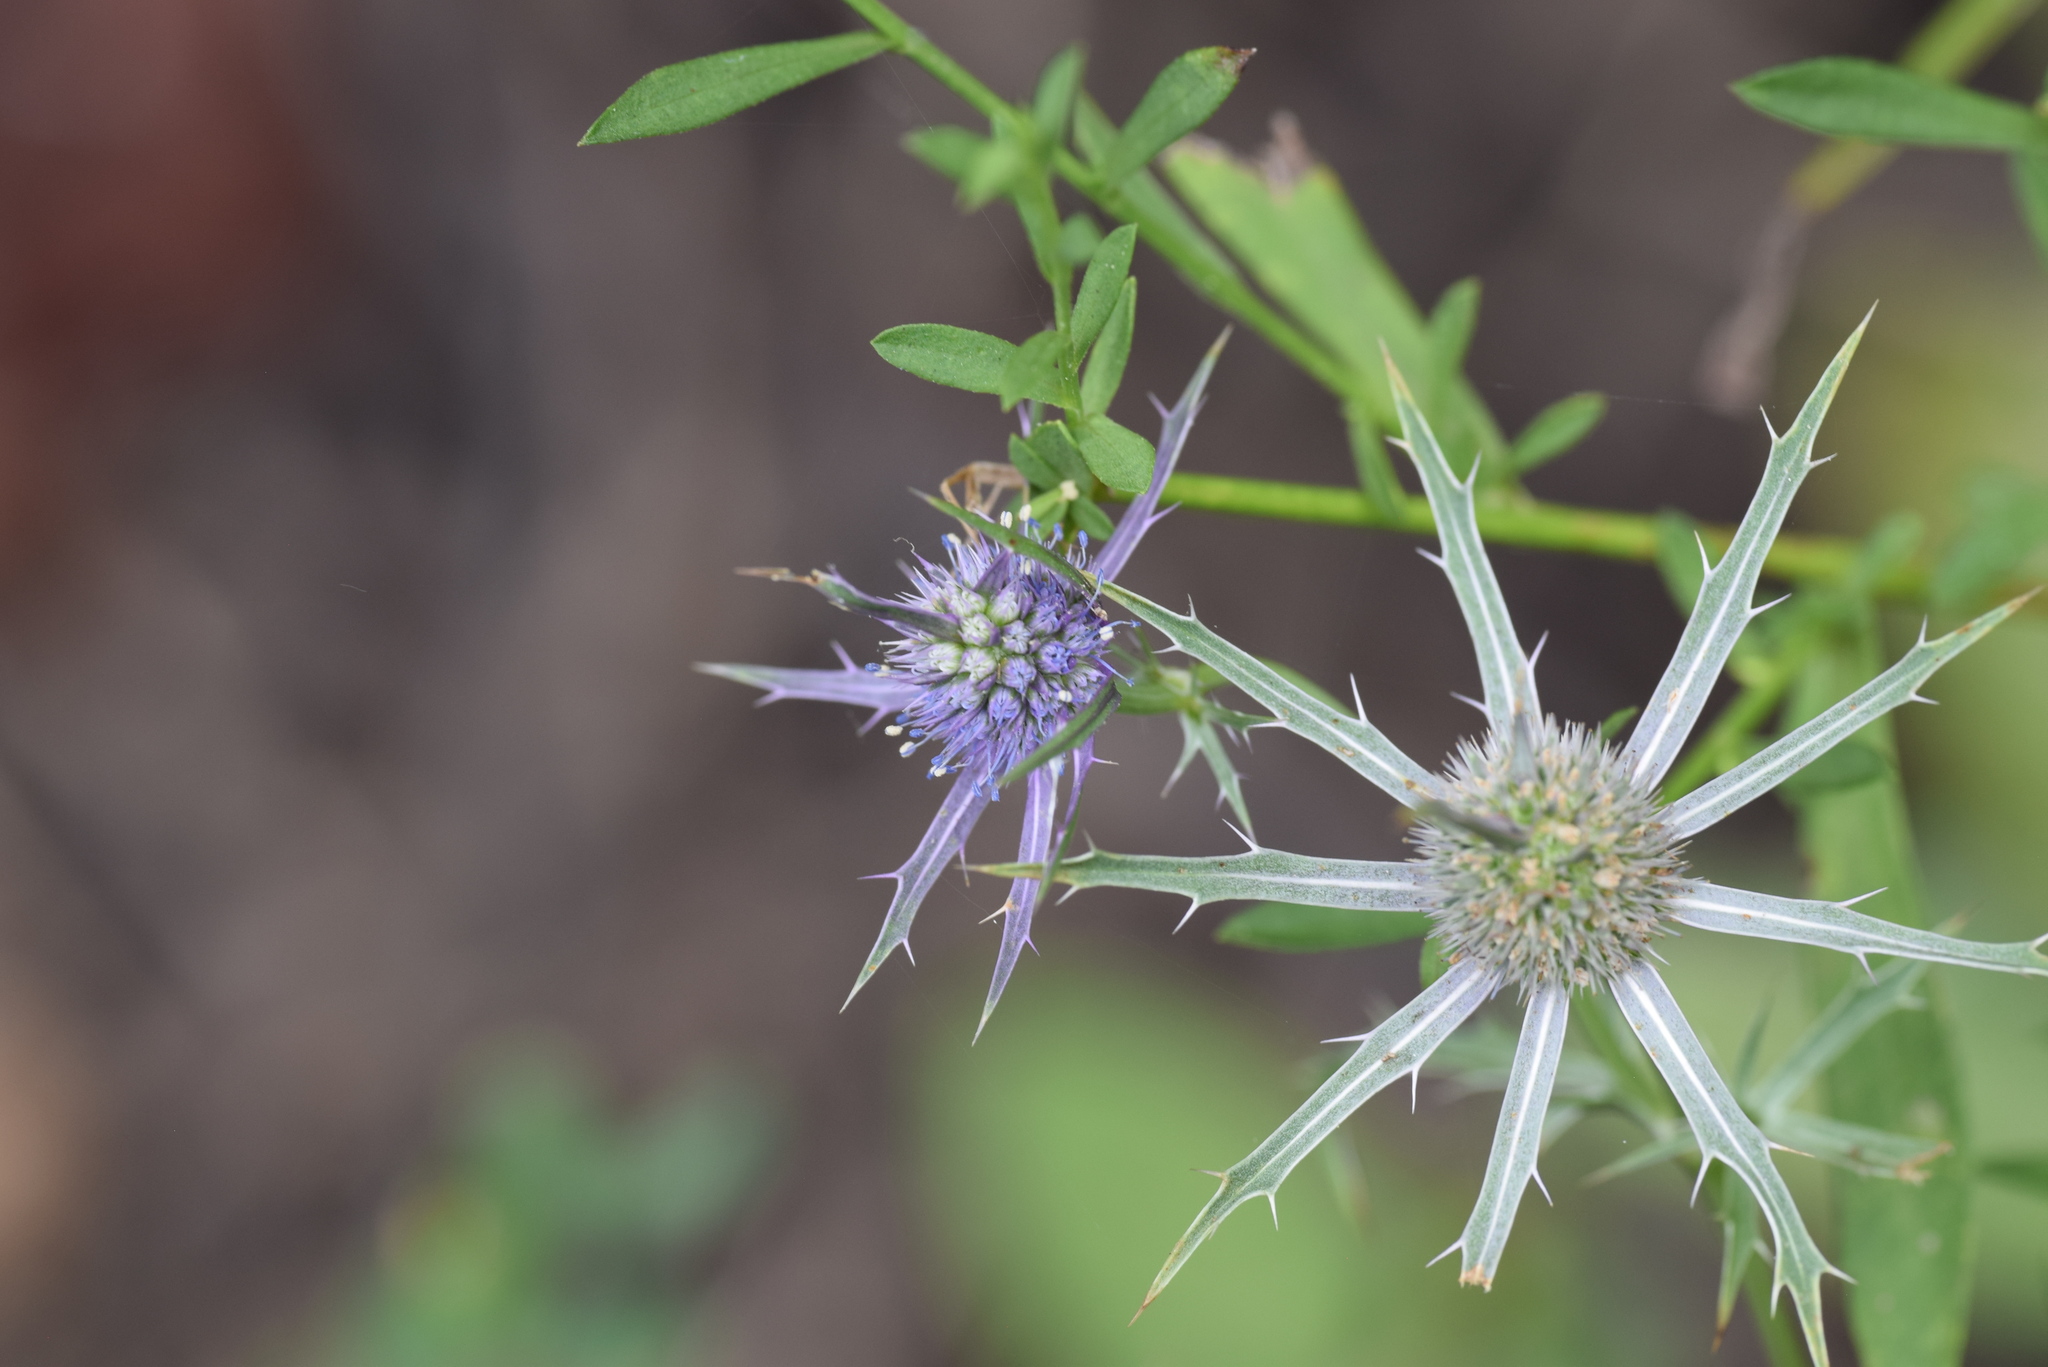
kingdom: Plantae
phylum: Tracheophyta
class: Magnoliopsida
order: Apiales
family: Apiaceae
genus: Eryngium
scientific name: Eryngium hookeri
